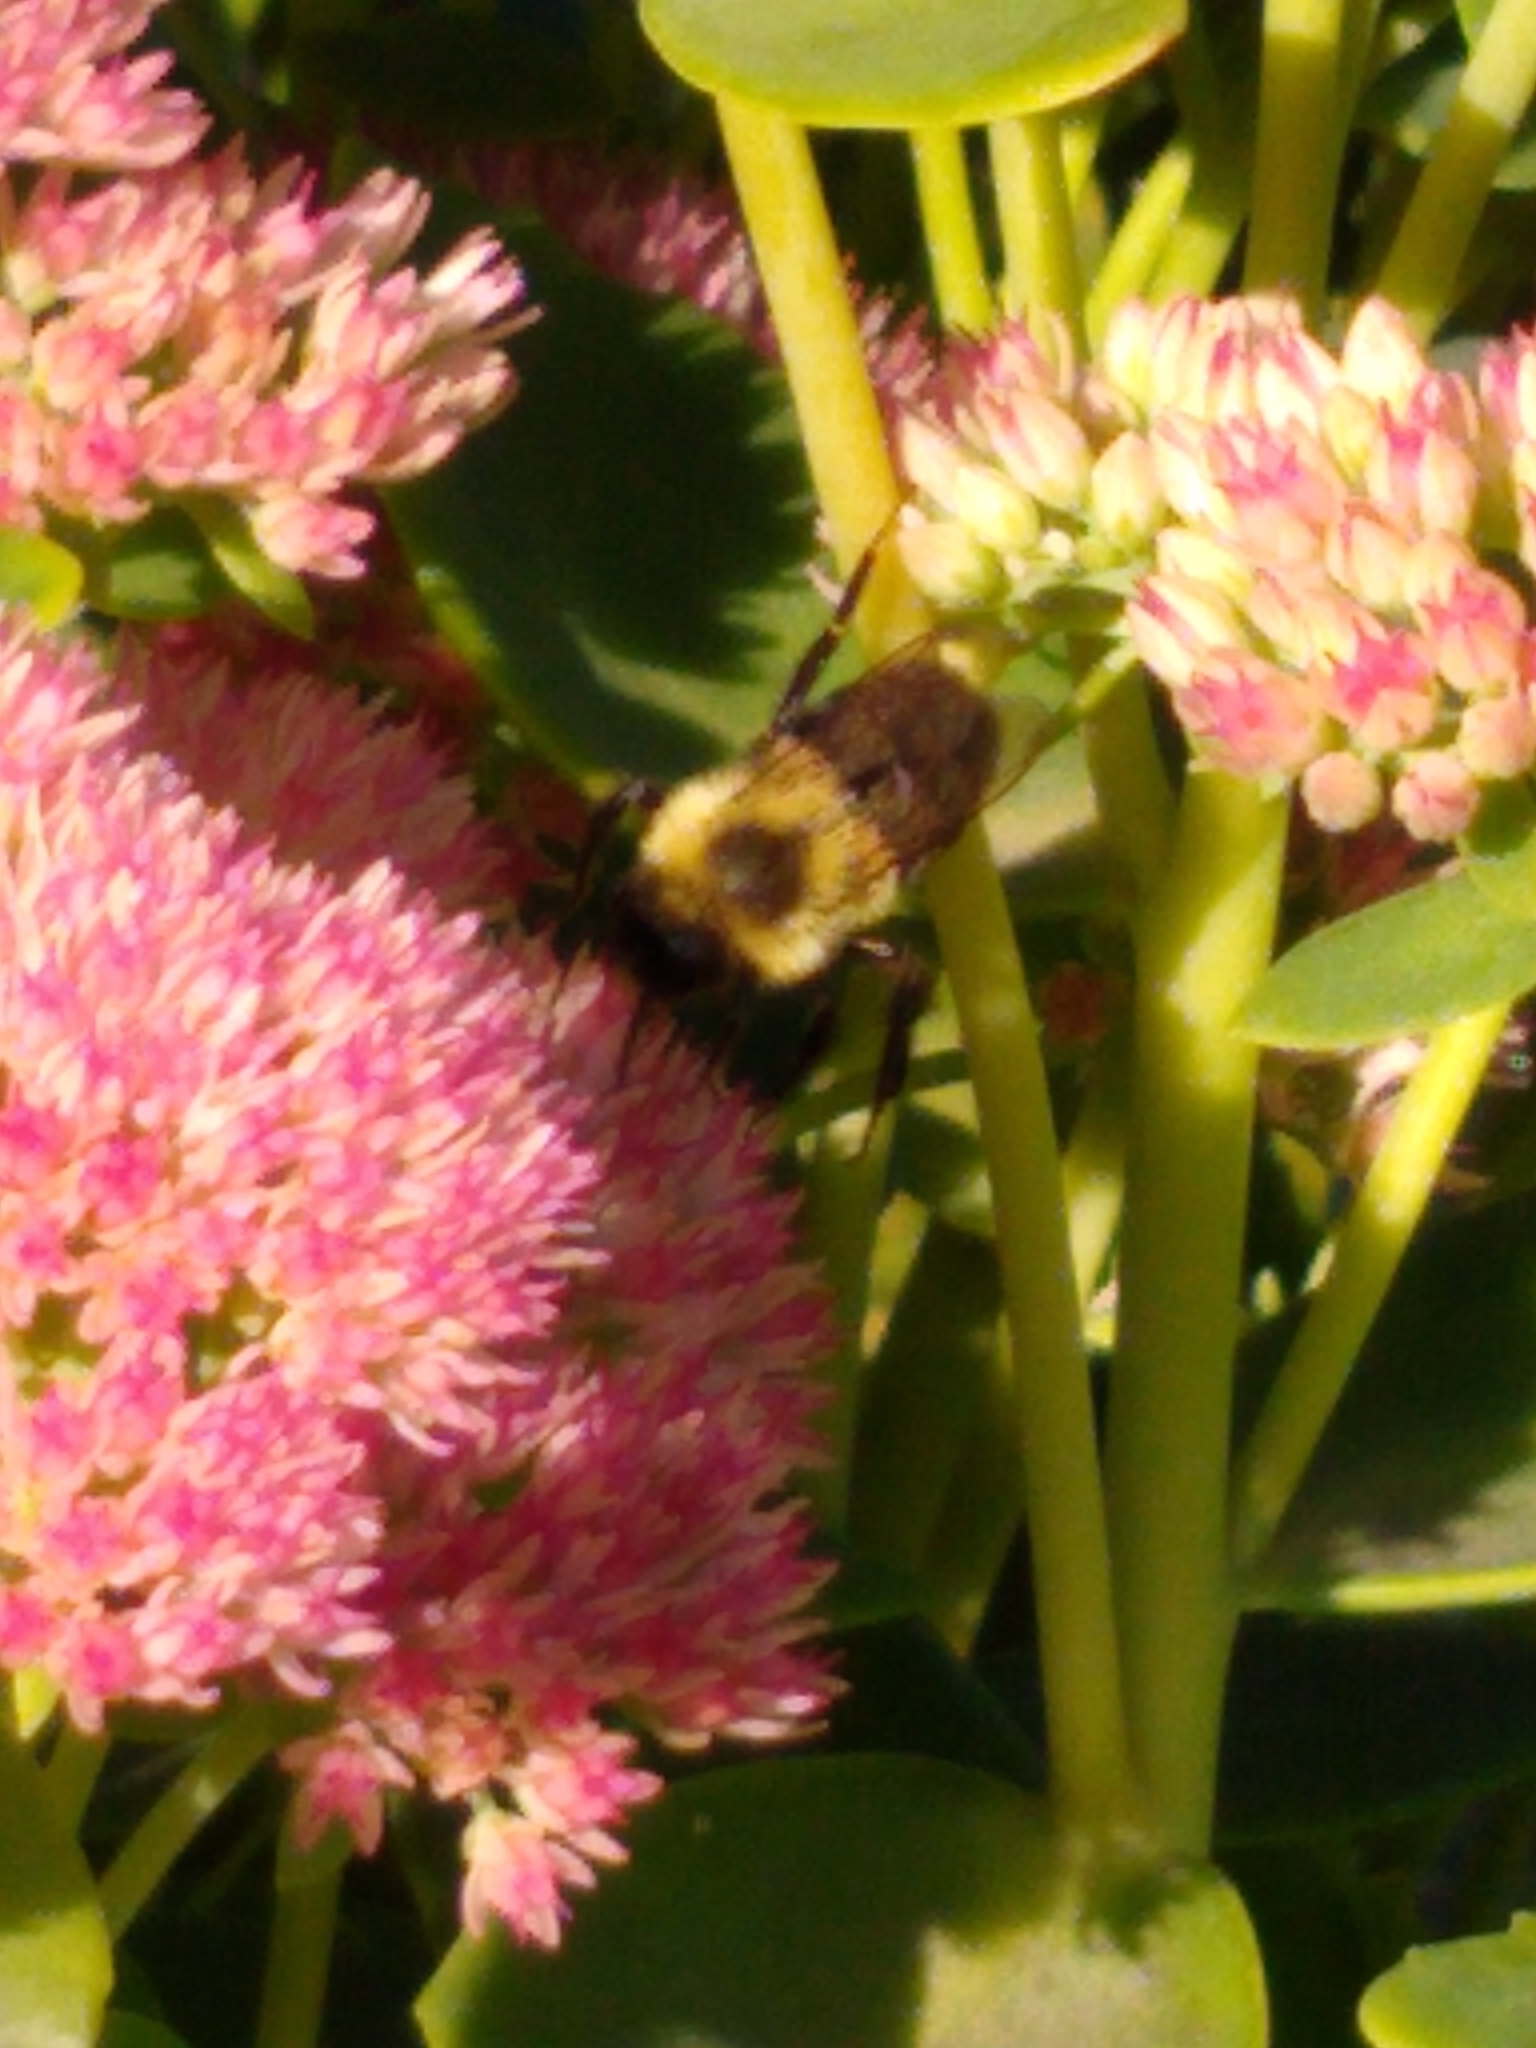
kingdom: Animalia
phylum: Arthropoda
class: Insecta
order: Hymenoptera
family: Apidae
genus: Bombus
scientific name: Bombus impatiens
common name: Common eastern bumble bee
